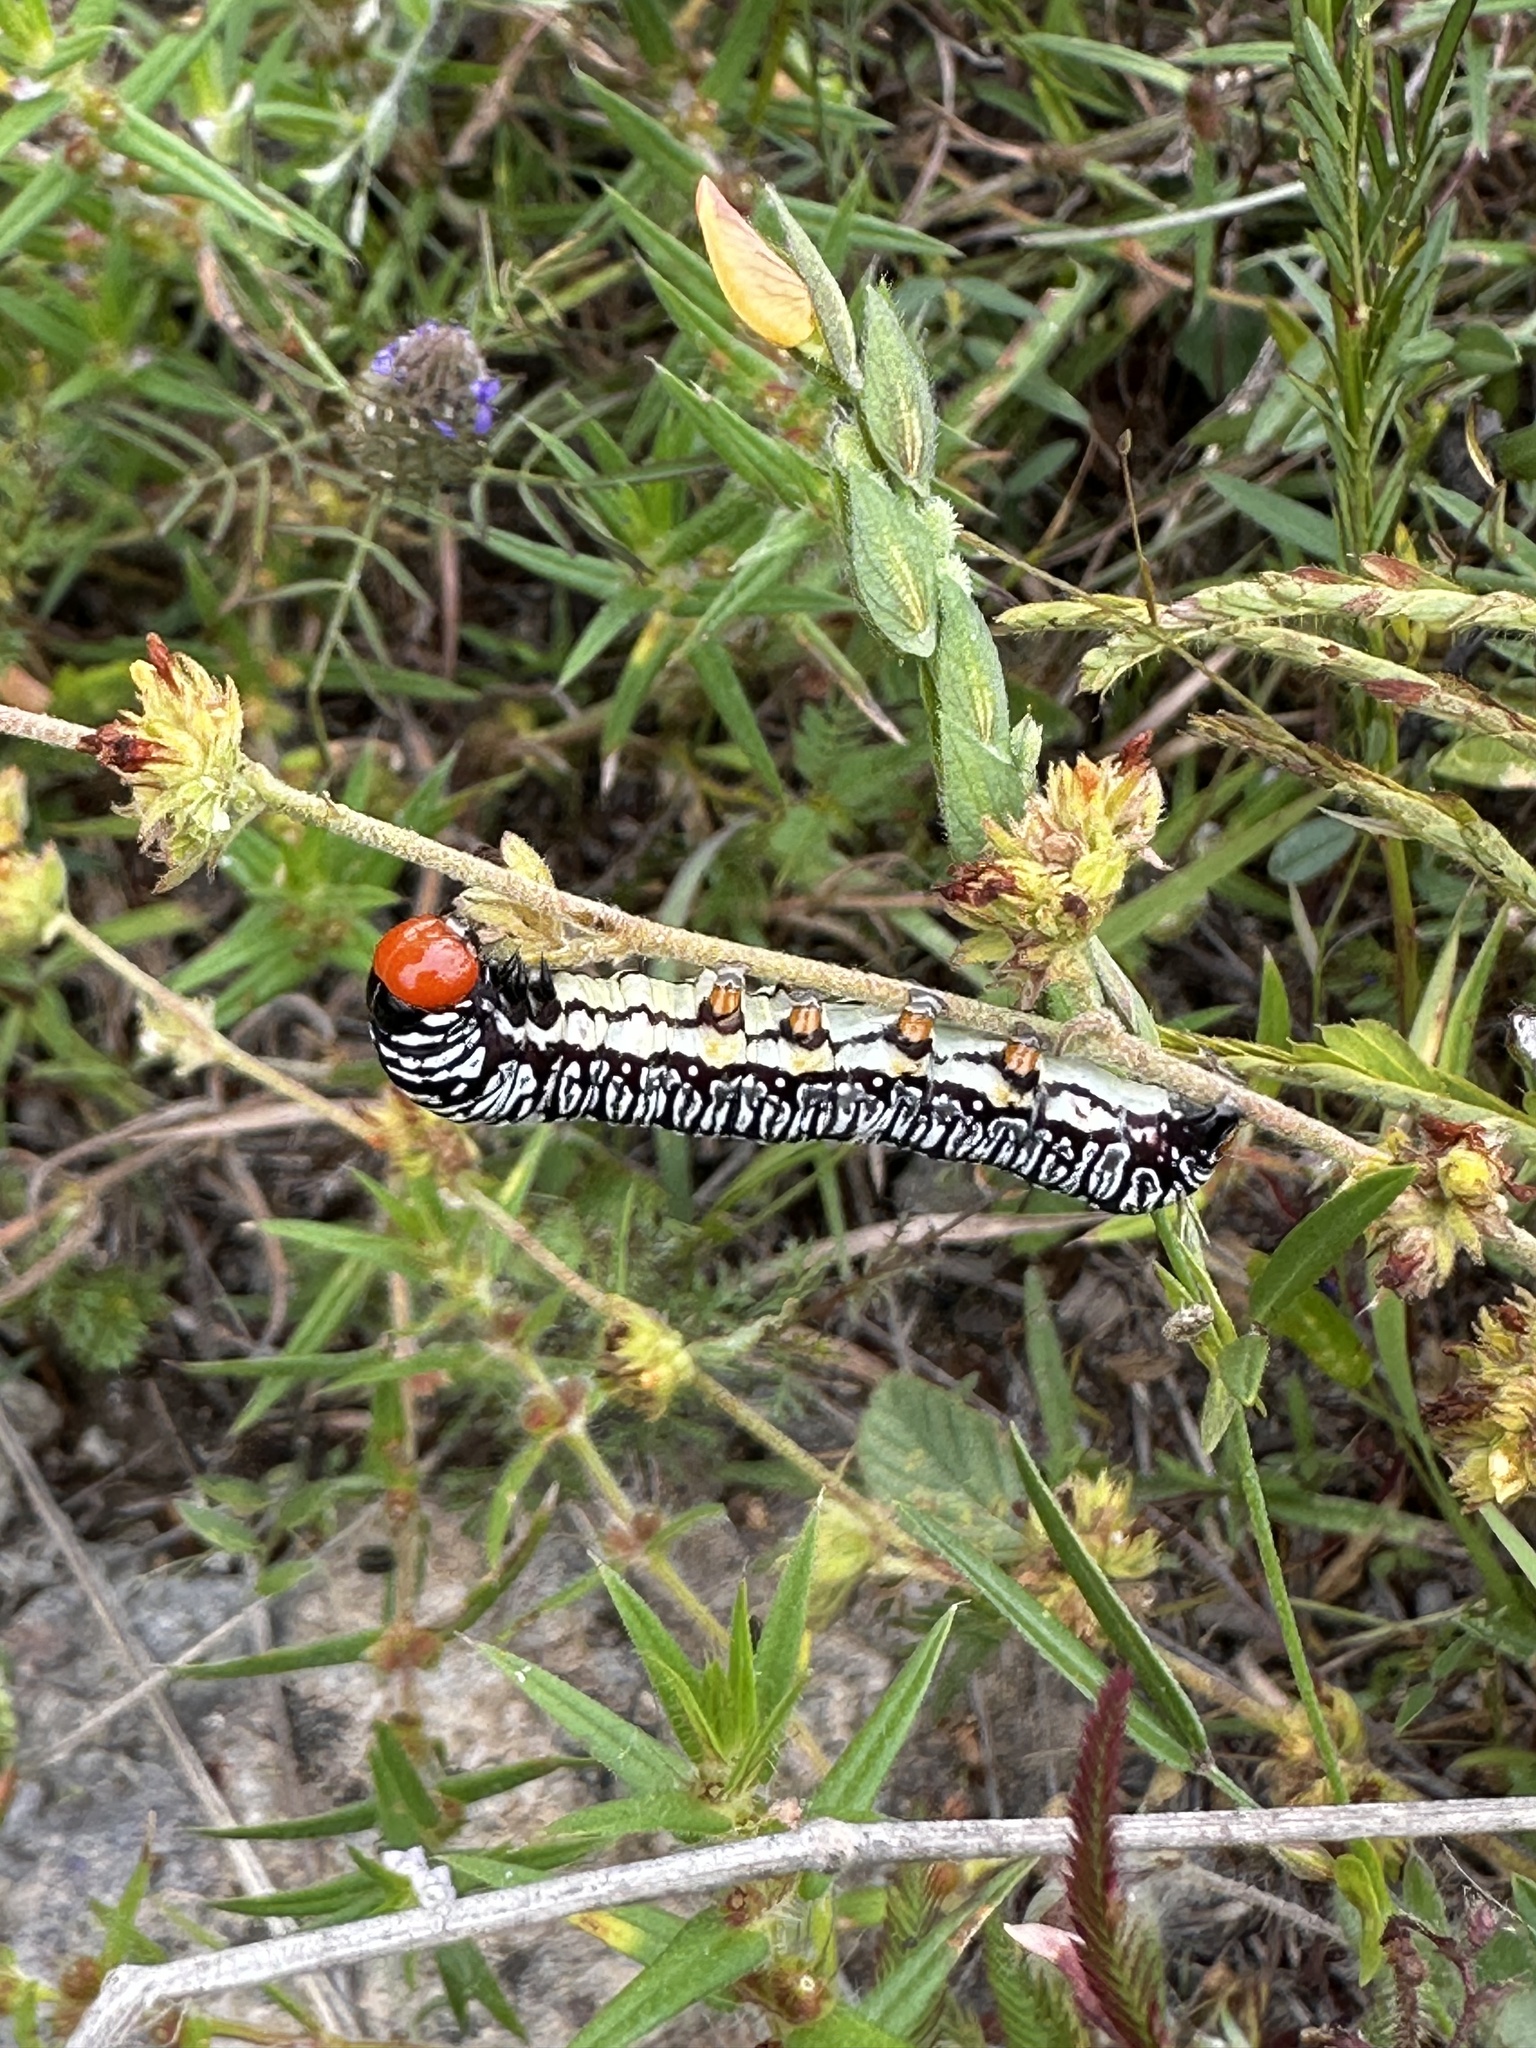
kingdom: Animalia
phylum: Arthropoda
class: Insecta
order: Lepidoptera
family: Erebidae
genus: Diphthera
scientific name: Diphthera festiva
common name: Hieroglyphic moth
